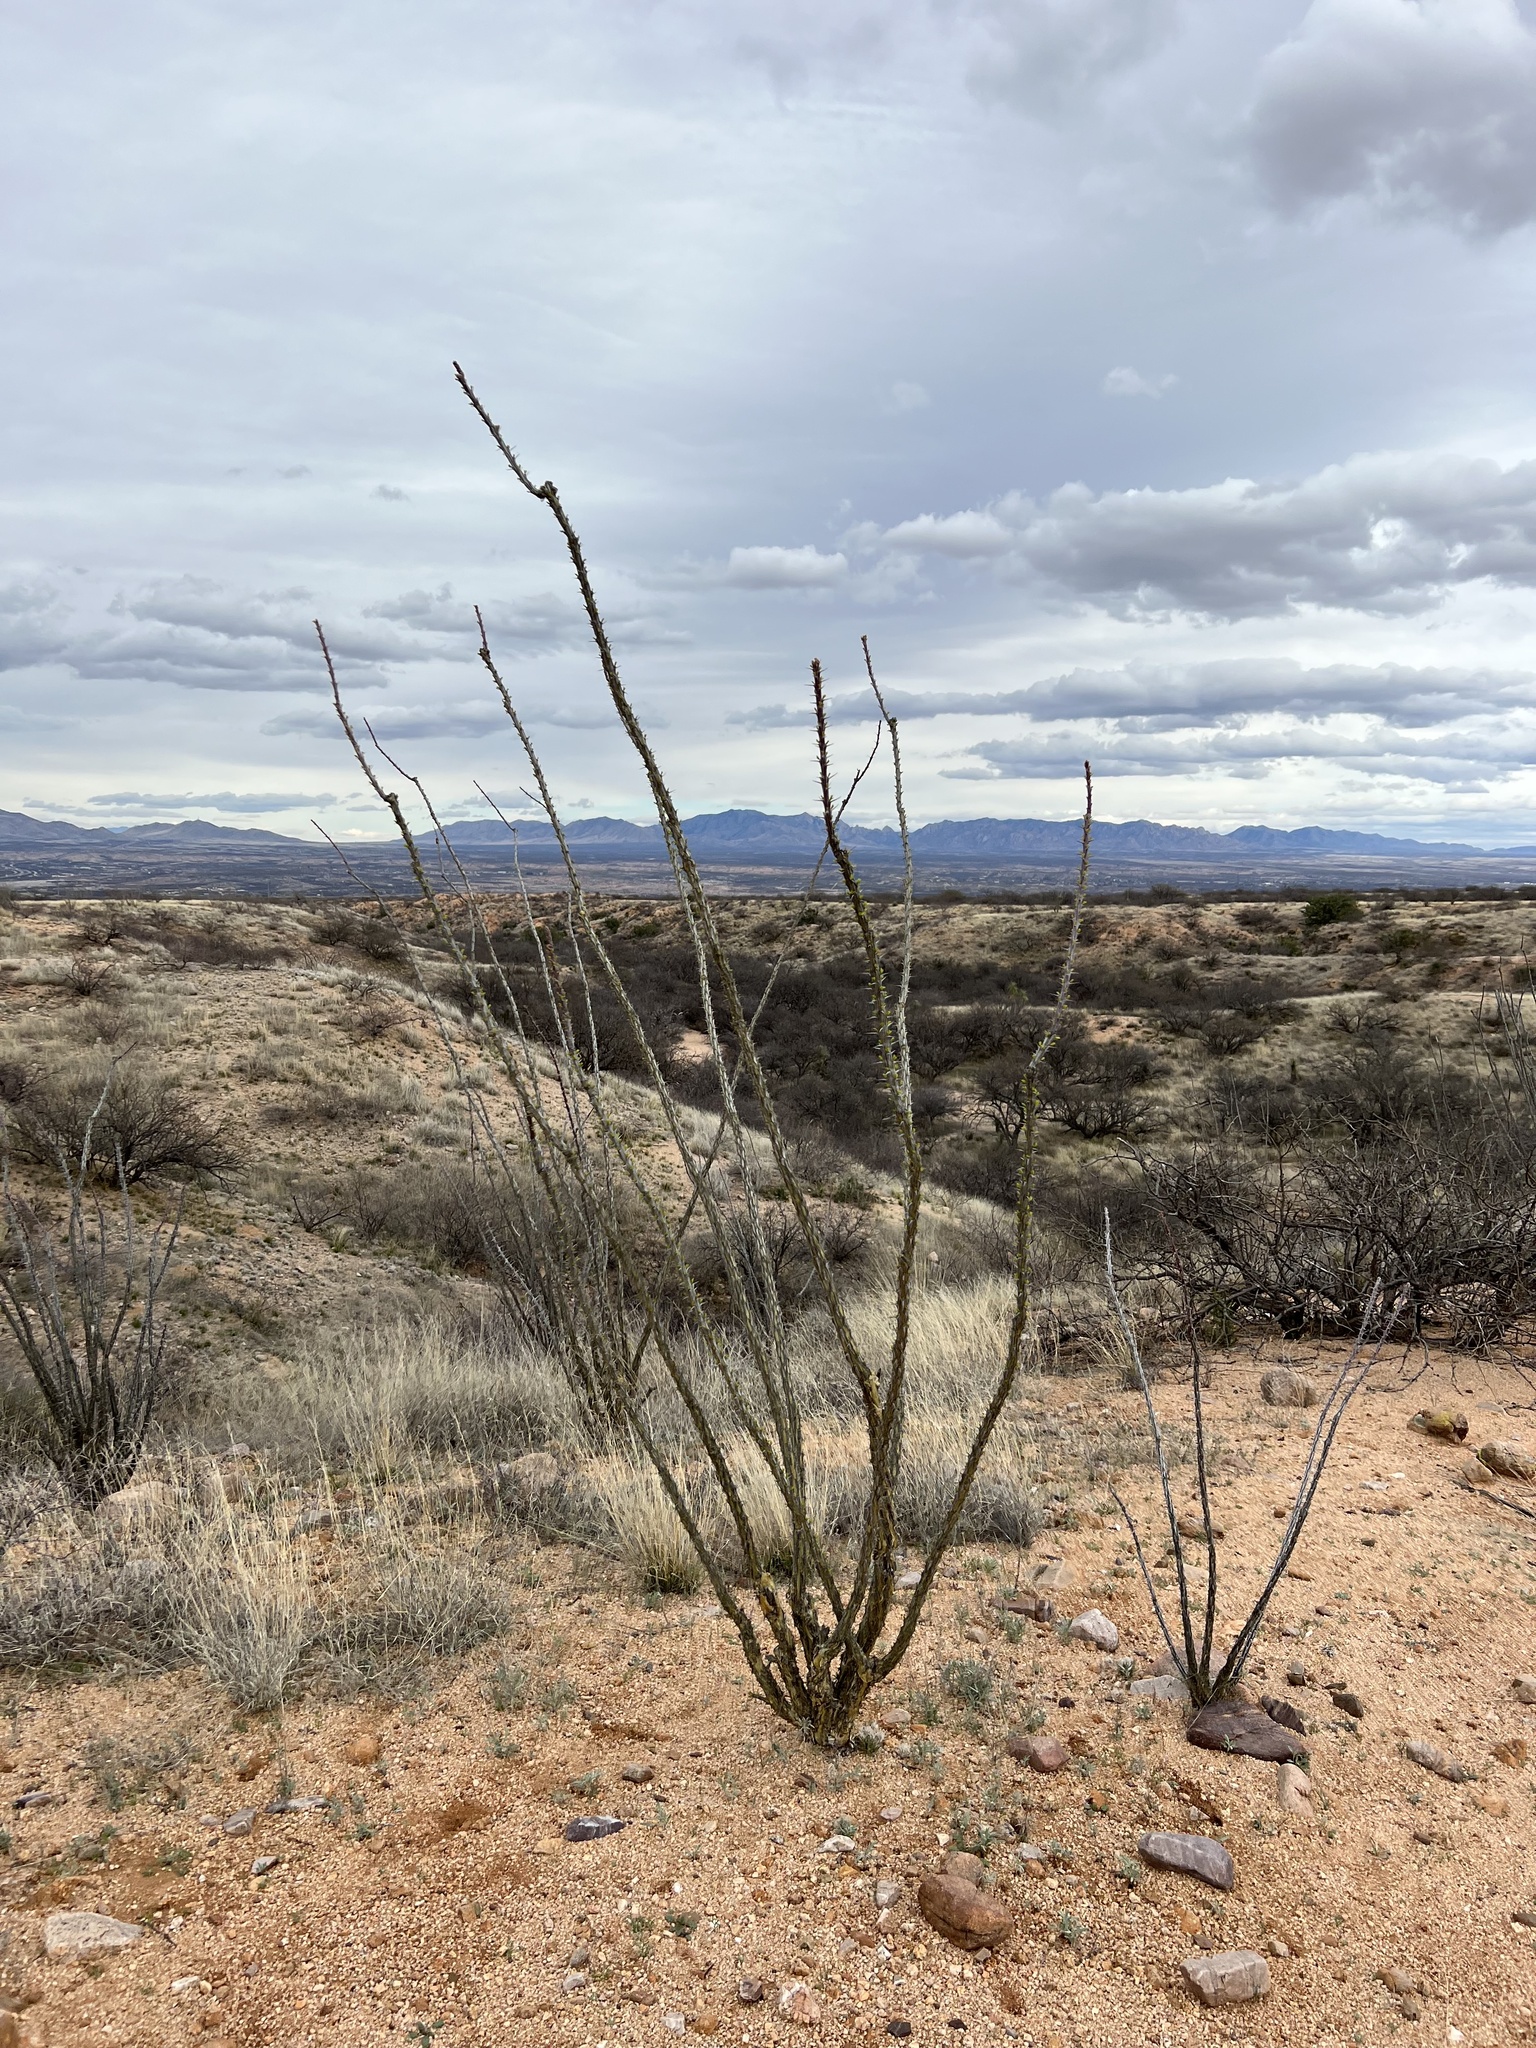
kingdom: Plantae
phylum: Tracheophyta
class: Magnoliopsida
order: Ericales
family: Fouquieriaceae
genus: Fouquieria
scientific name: Fouquieria splendens
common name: Vine-cactus
